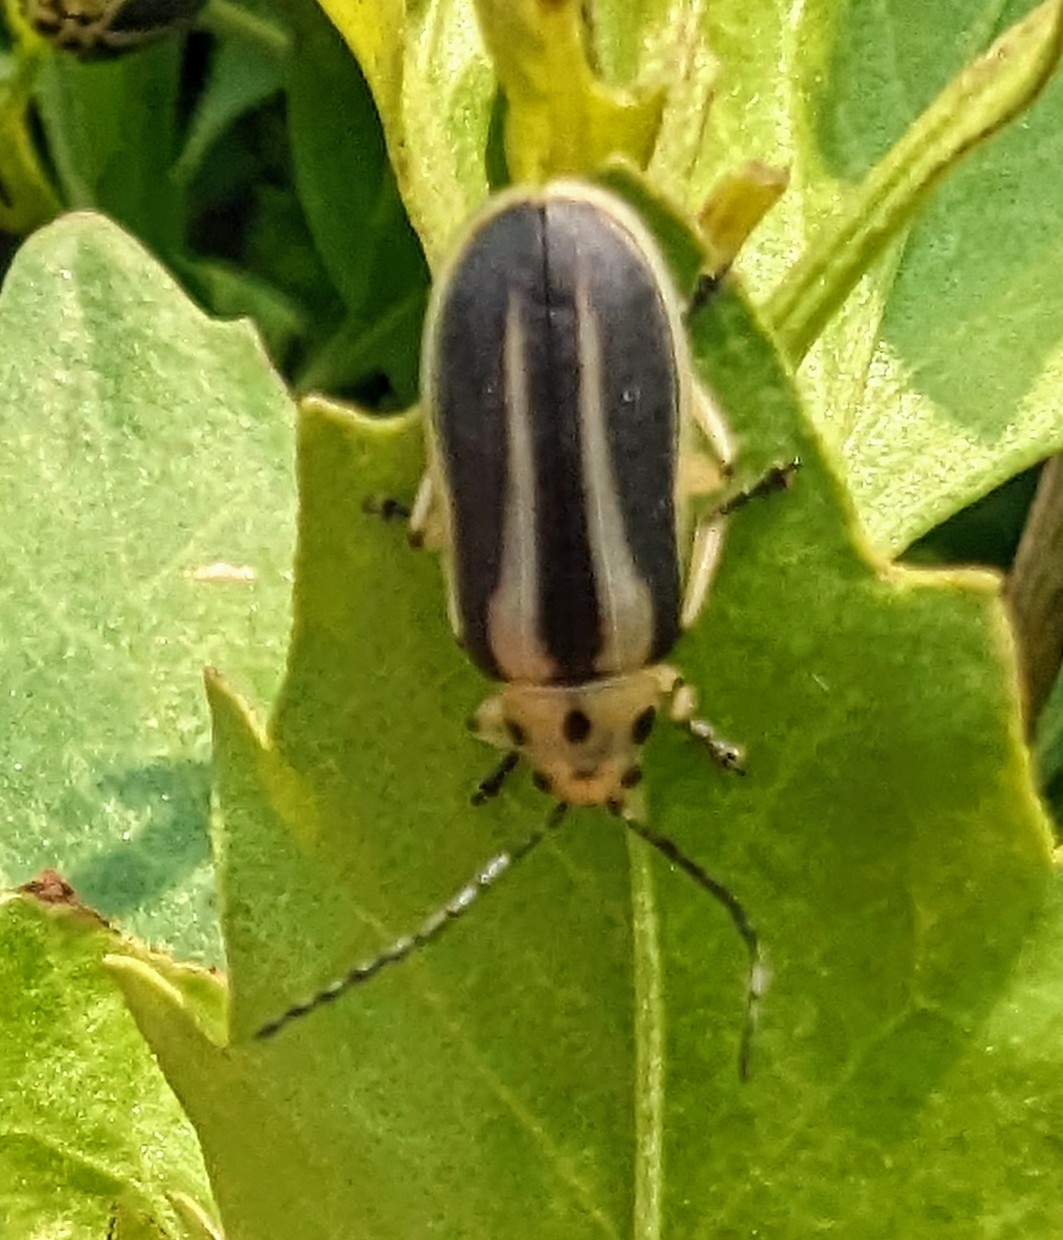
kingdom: Animalia
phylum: Arthropoda
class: Insecta
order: Coleoptera
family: Chrysomelidae
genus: Trirhabda
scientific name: Trirhabda bacharidis
